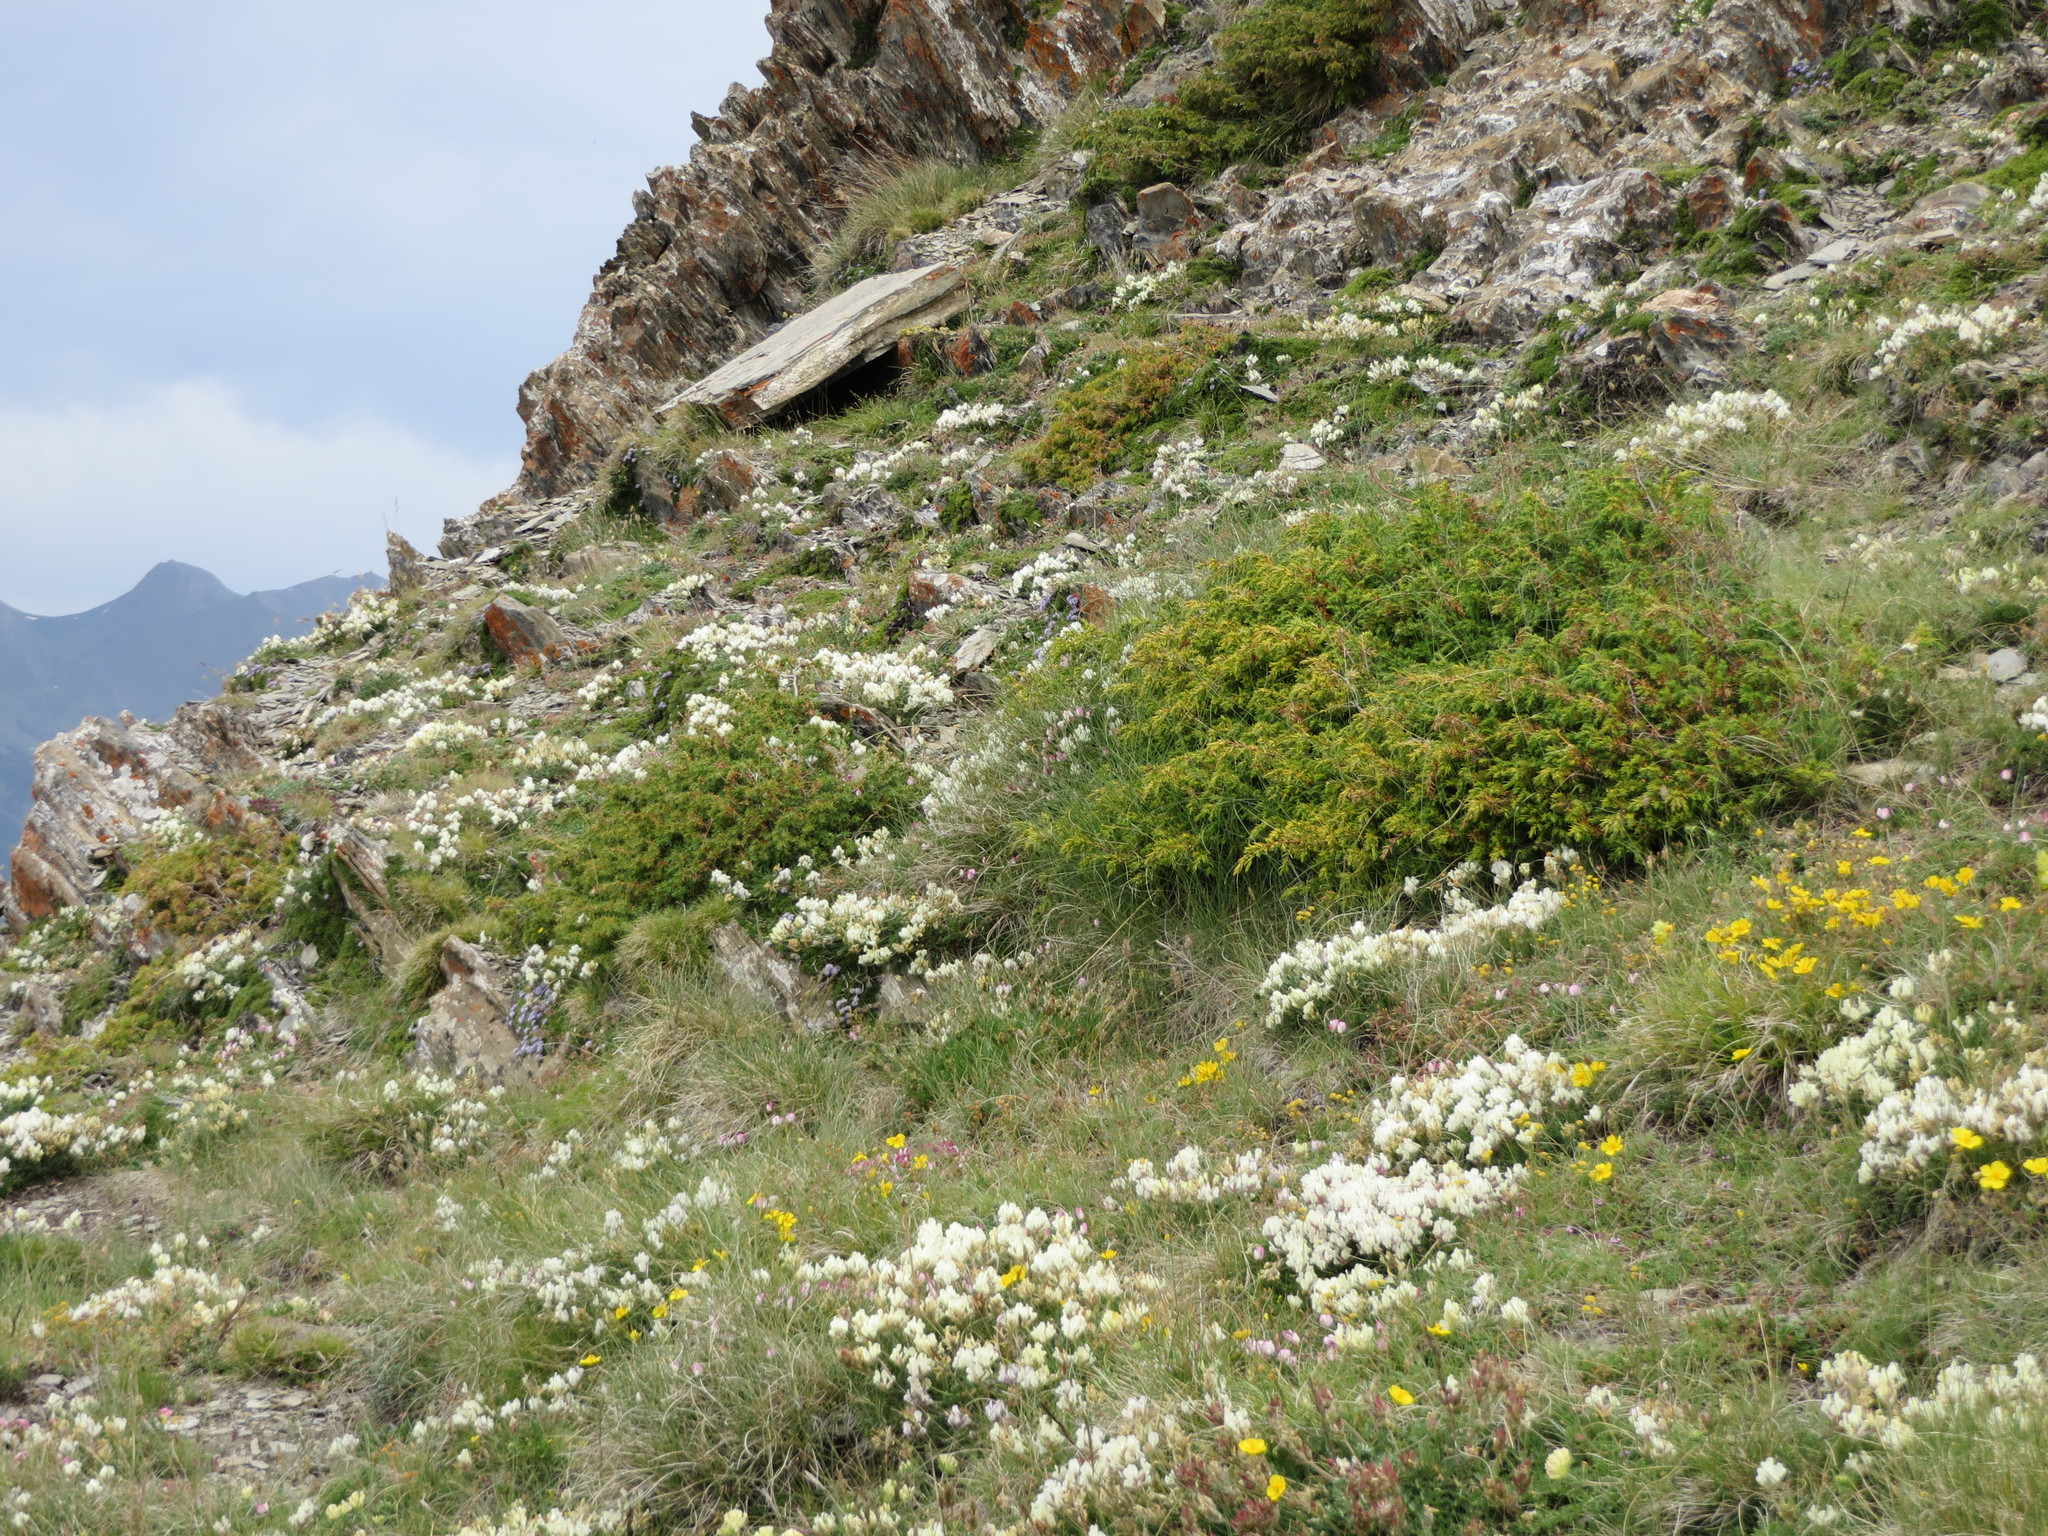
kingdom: Plantae
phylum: Tracheophyta
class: Pinopsida
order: Pinales
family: Cupressaceae
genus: Juniperus
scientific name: Juniperus communis
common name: Common juniper
